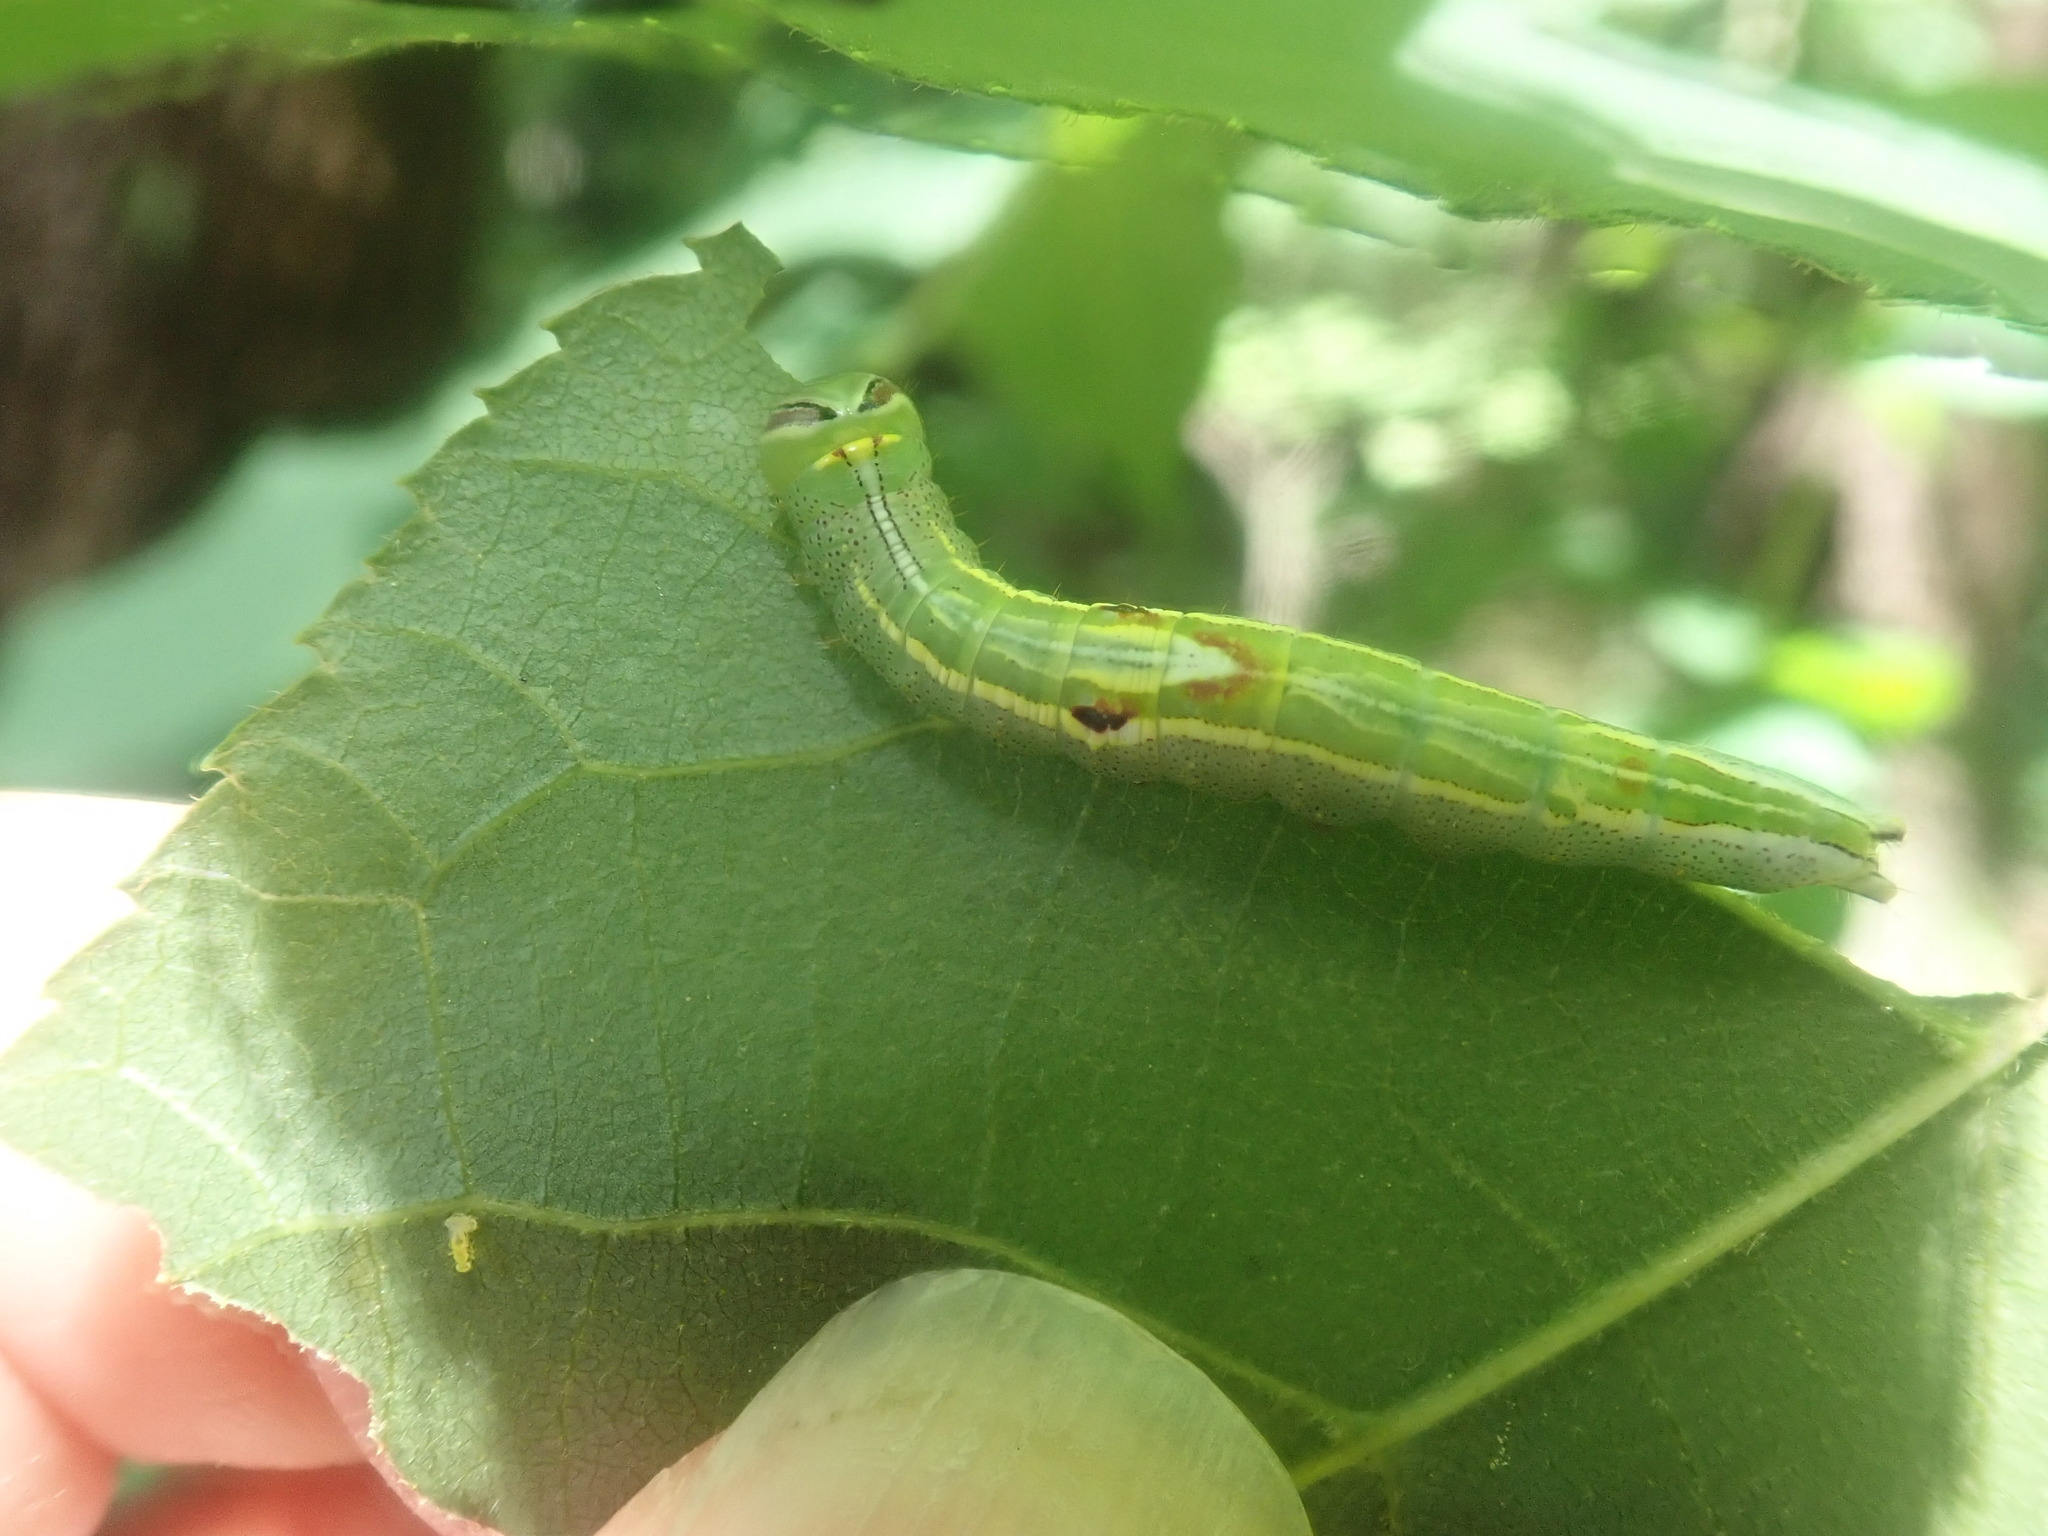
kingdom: Animalia
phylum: Arthropoda
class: Insecta
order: Lepidoptera
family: Notodontidae
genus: Disphragis
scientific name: Disphragis Cecrita guttivitta
